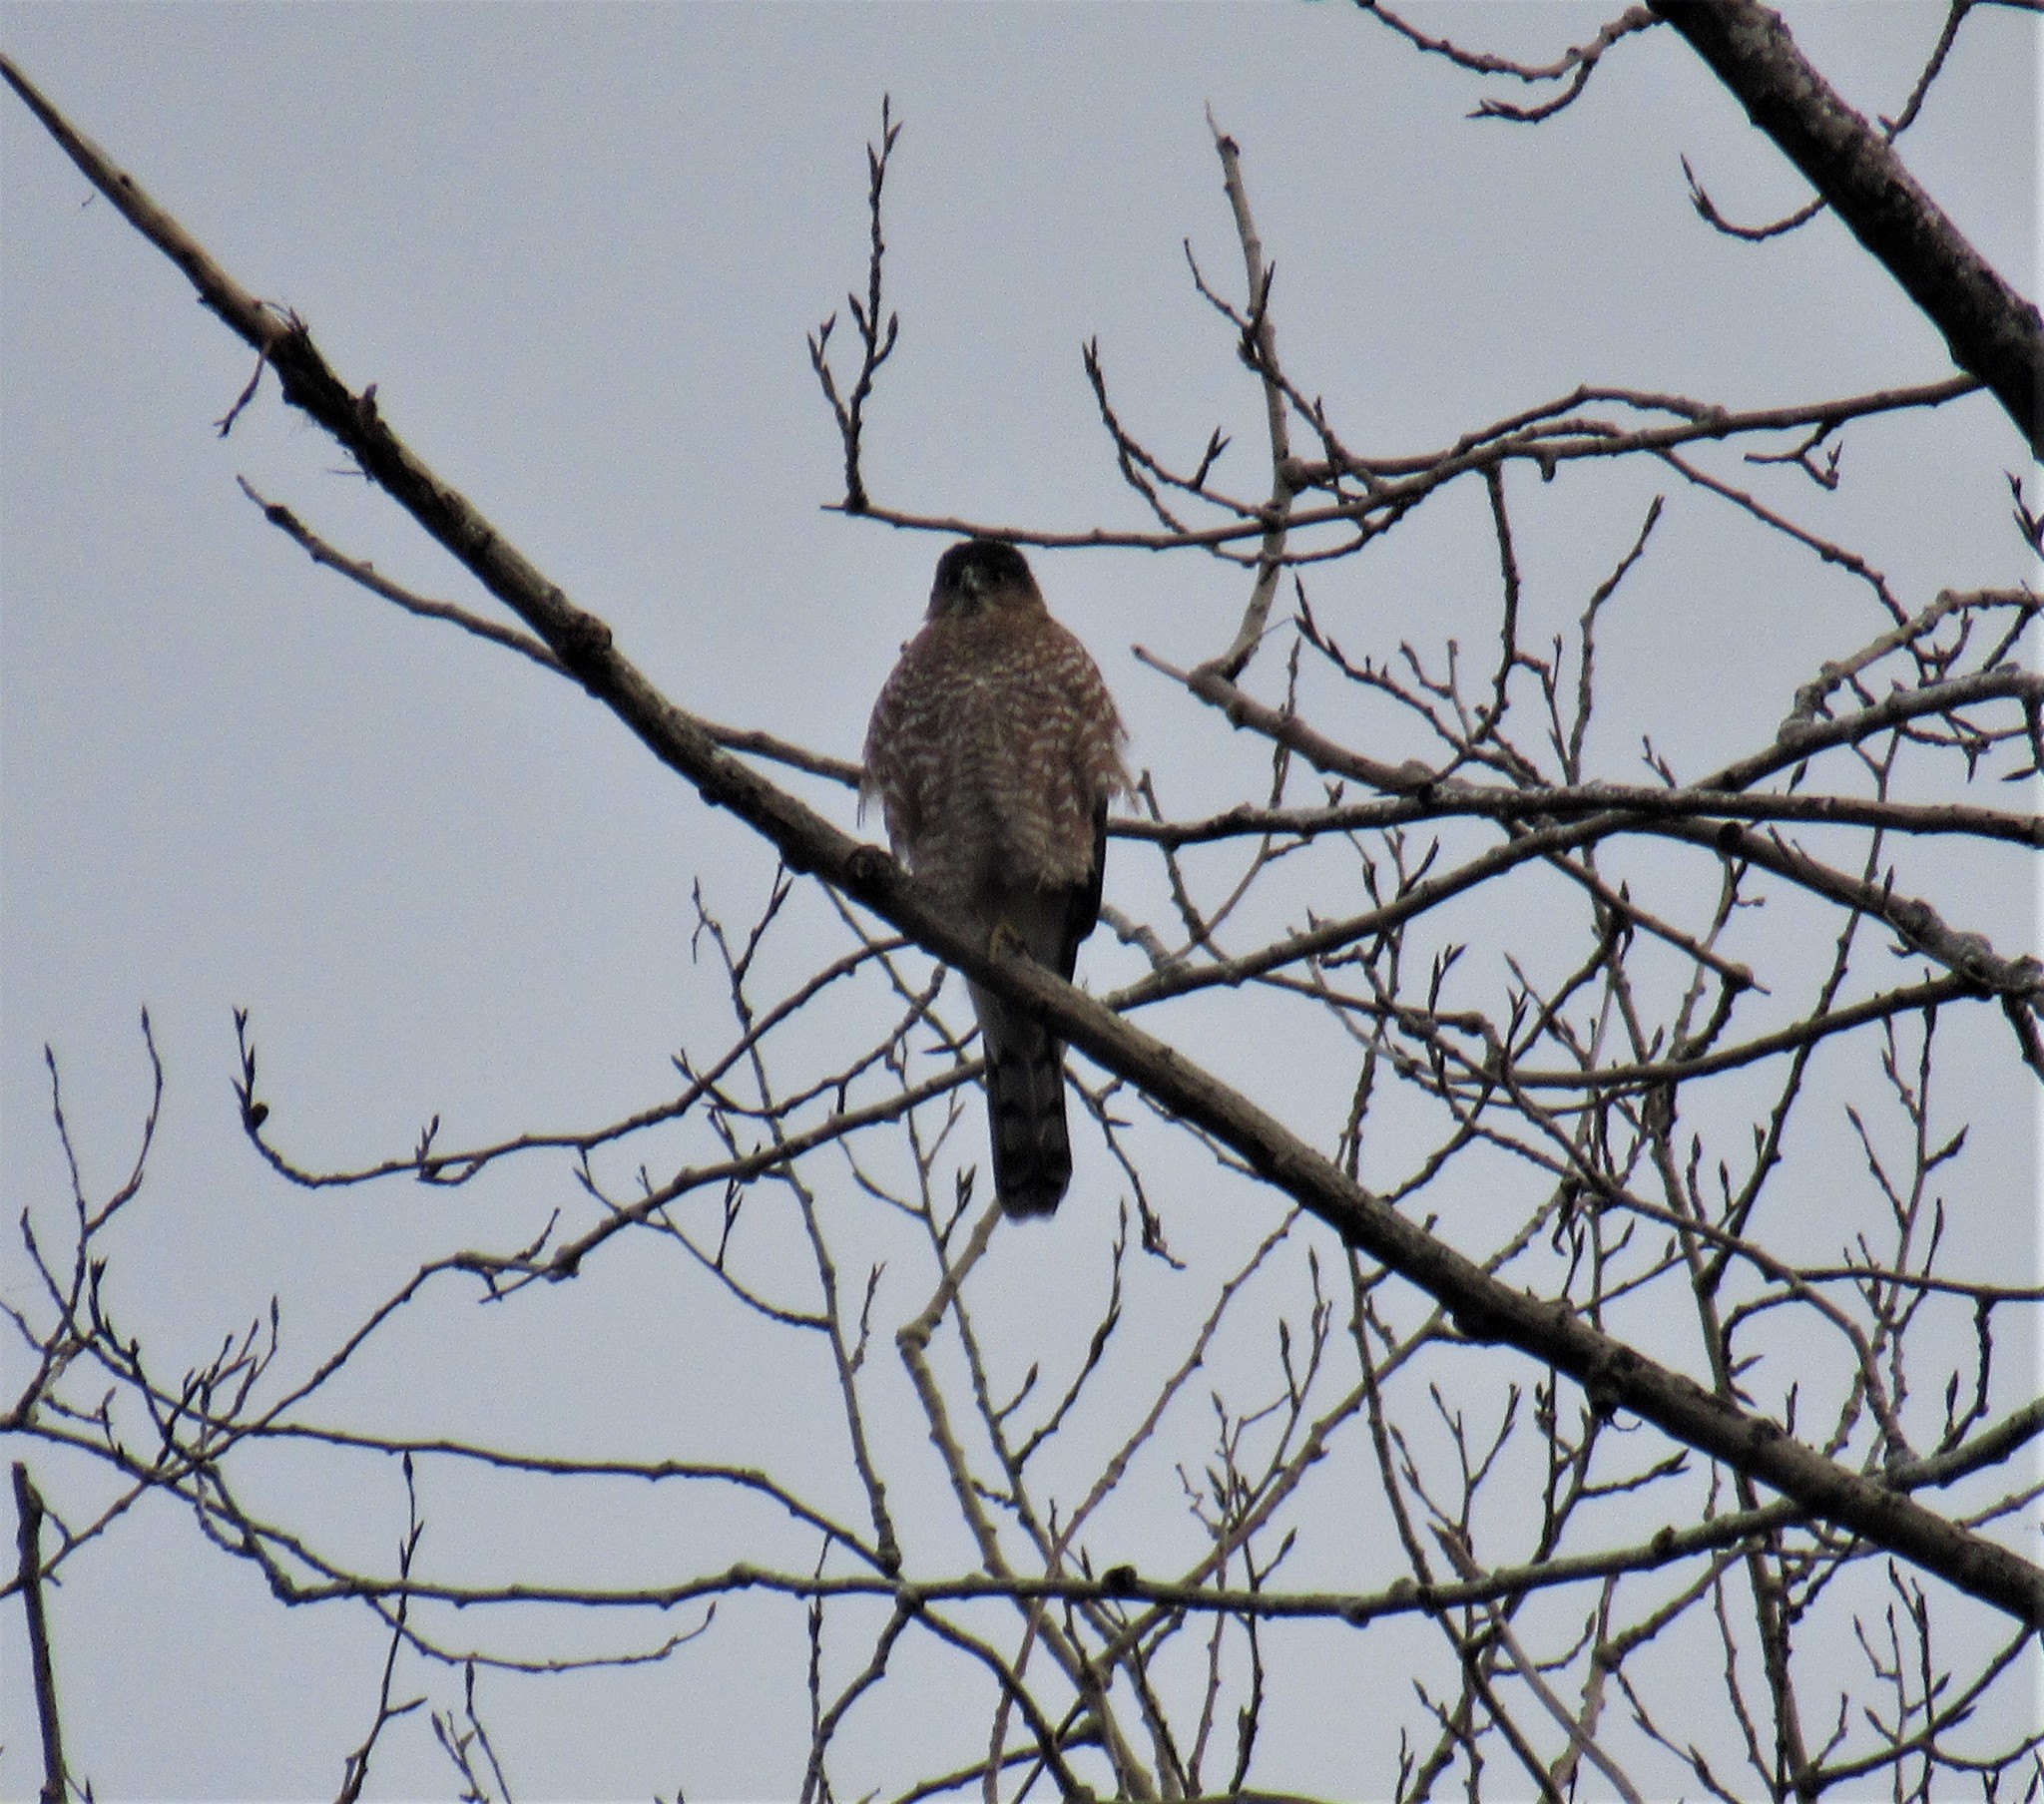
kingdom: Animalia
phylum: Chordata
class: Aves
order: Accipitriformes
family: Accipitridae
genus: Accipiter
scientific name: Accipiter cooperii
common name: Cooper's hawk
